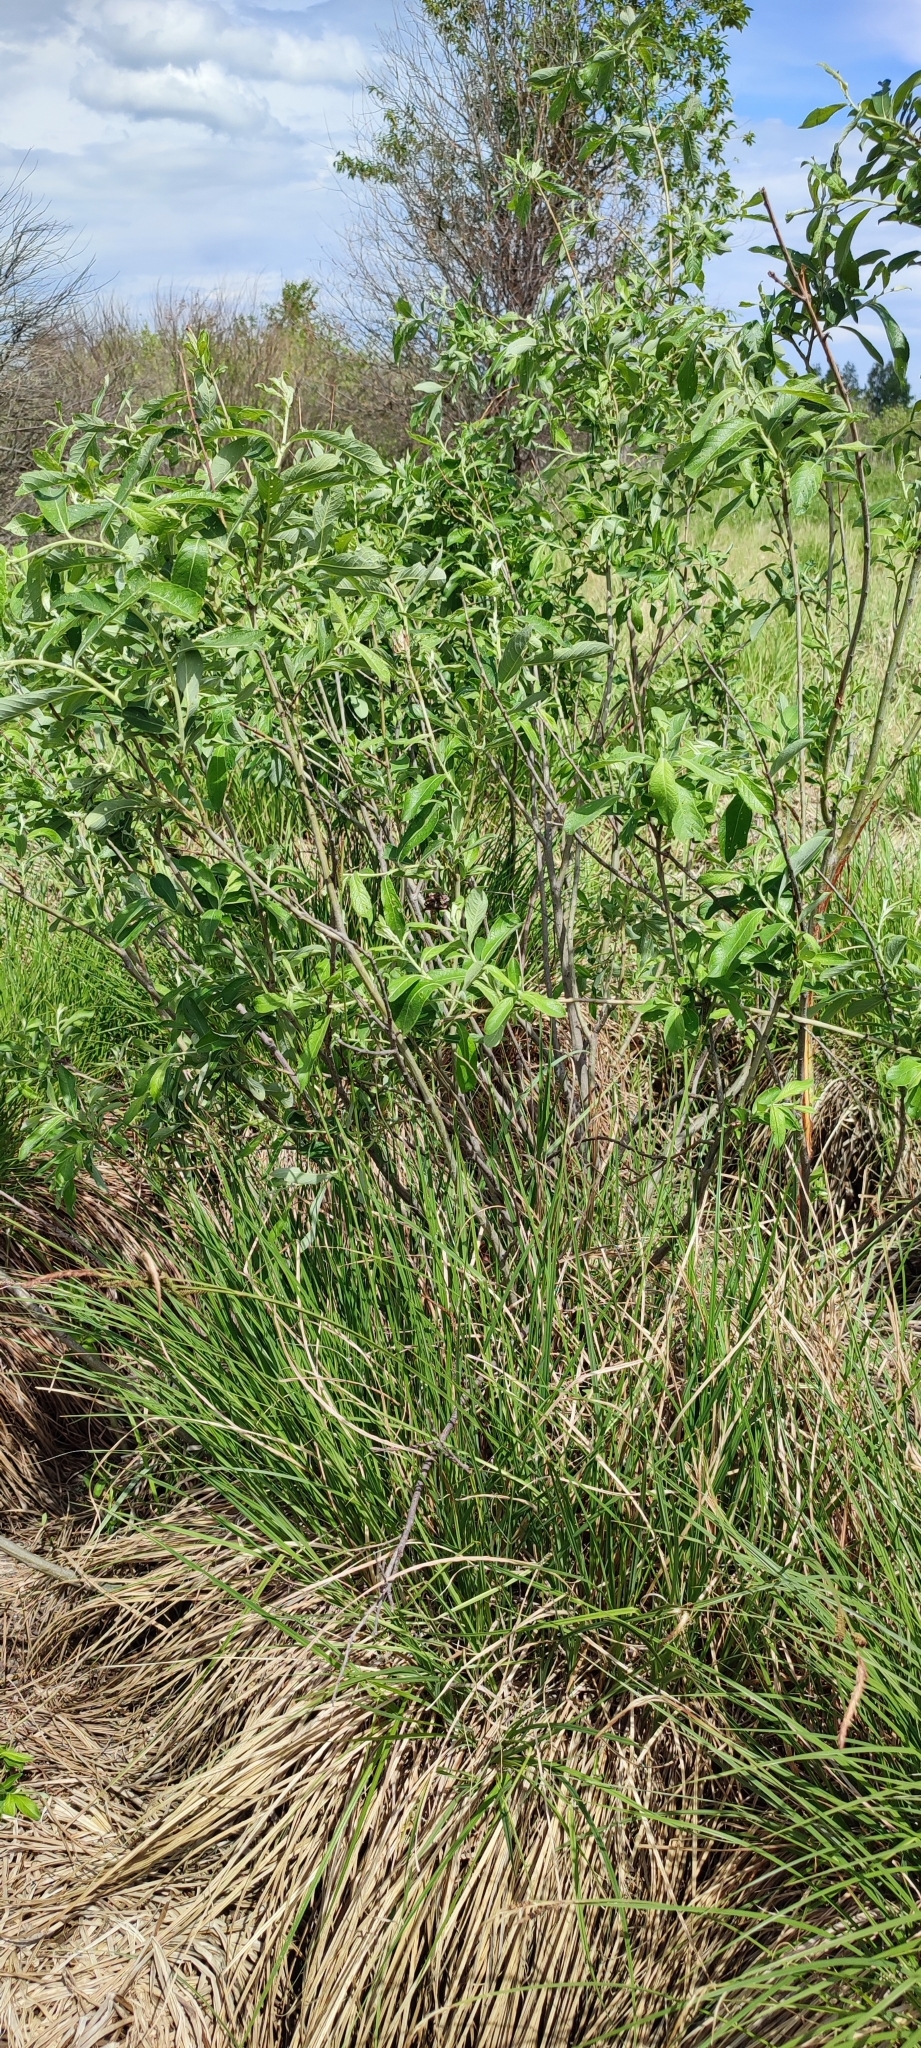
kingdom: Plantae
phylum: Tracheophyta
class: Magnoliopsida
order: Malpighiales
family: Salicaceae
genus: Salix
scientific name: Salix cinerea
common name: Common sallow
